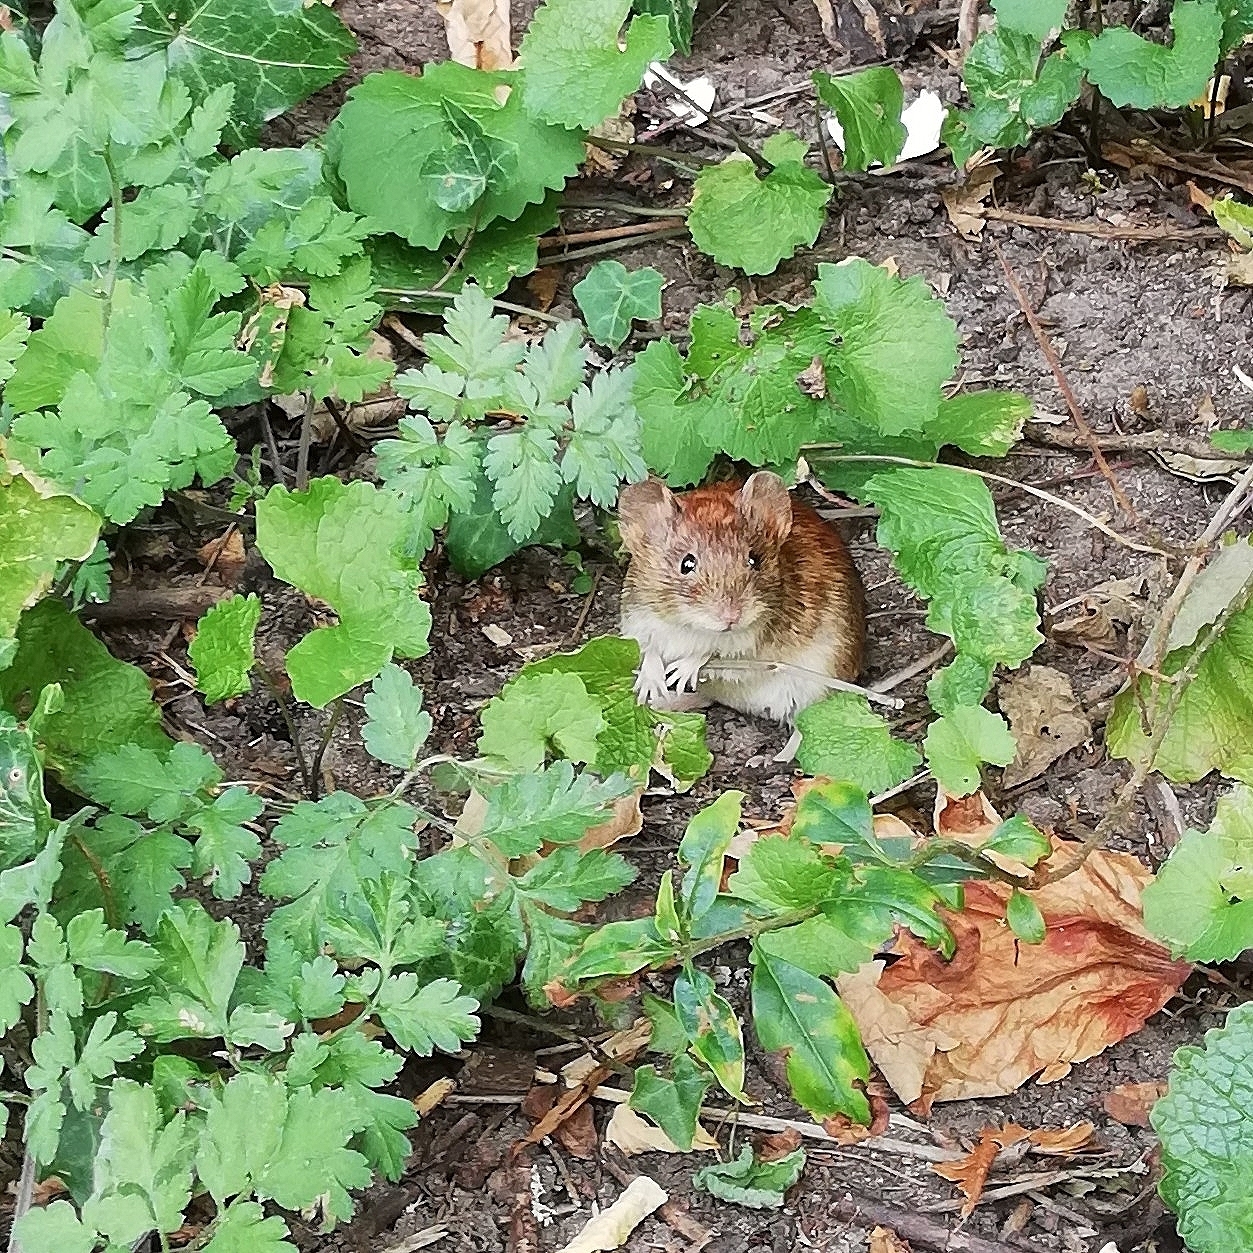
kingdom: Animalia
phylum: Chordata
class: Mammalia
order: Rodentia
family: Cricetidae
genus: Myodes
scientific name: Myodes glareolus
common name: Bank vole
